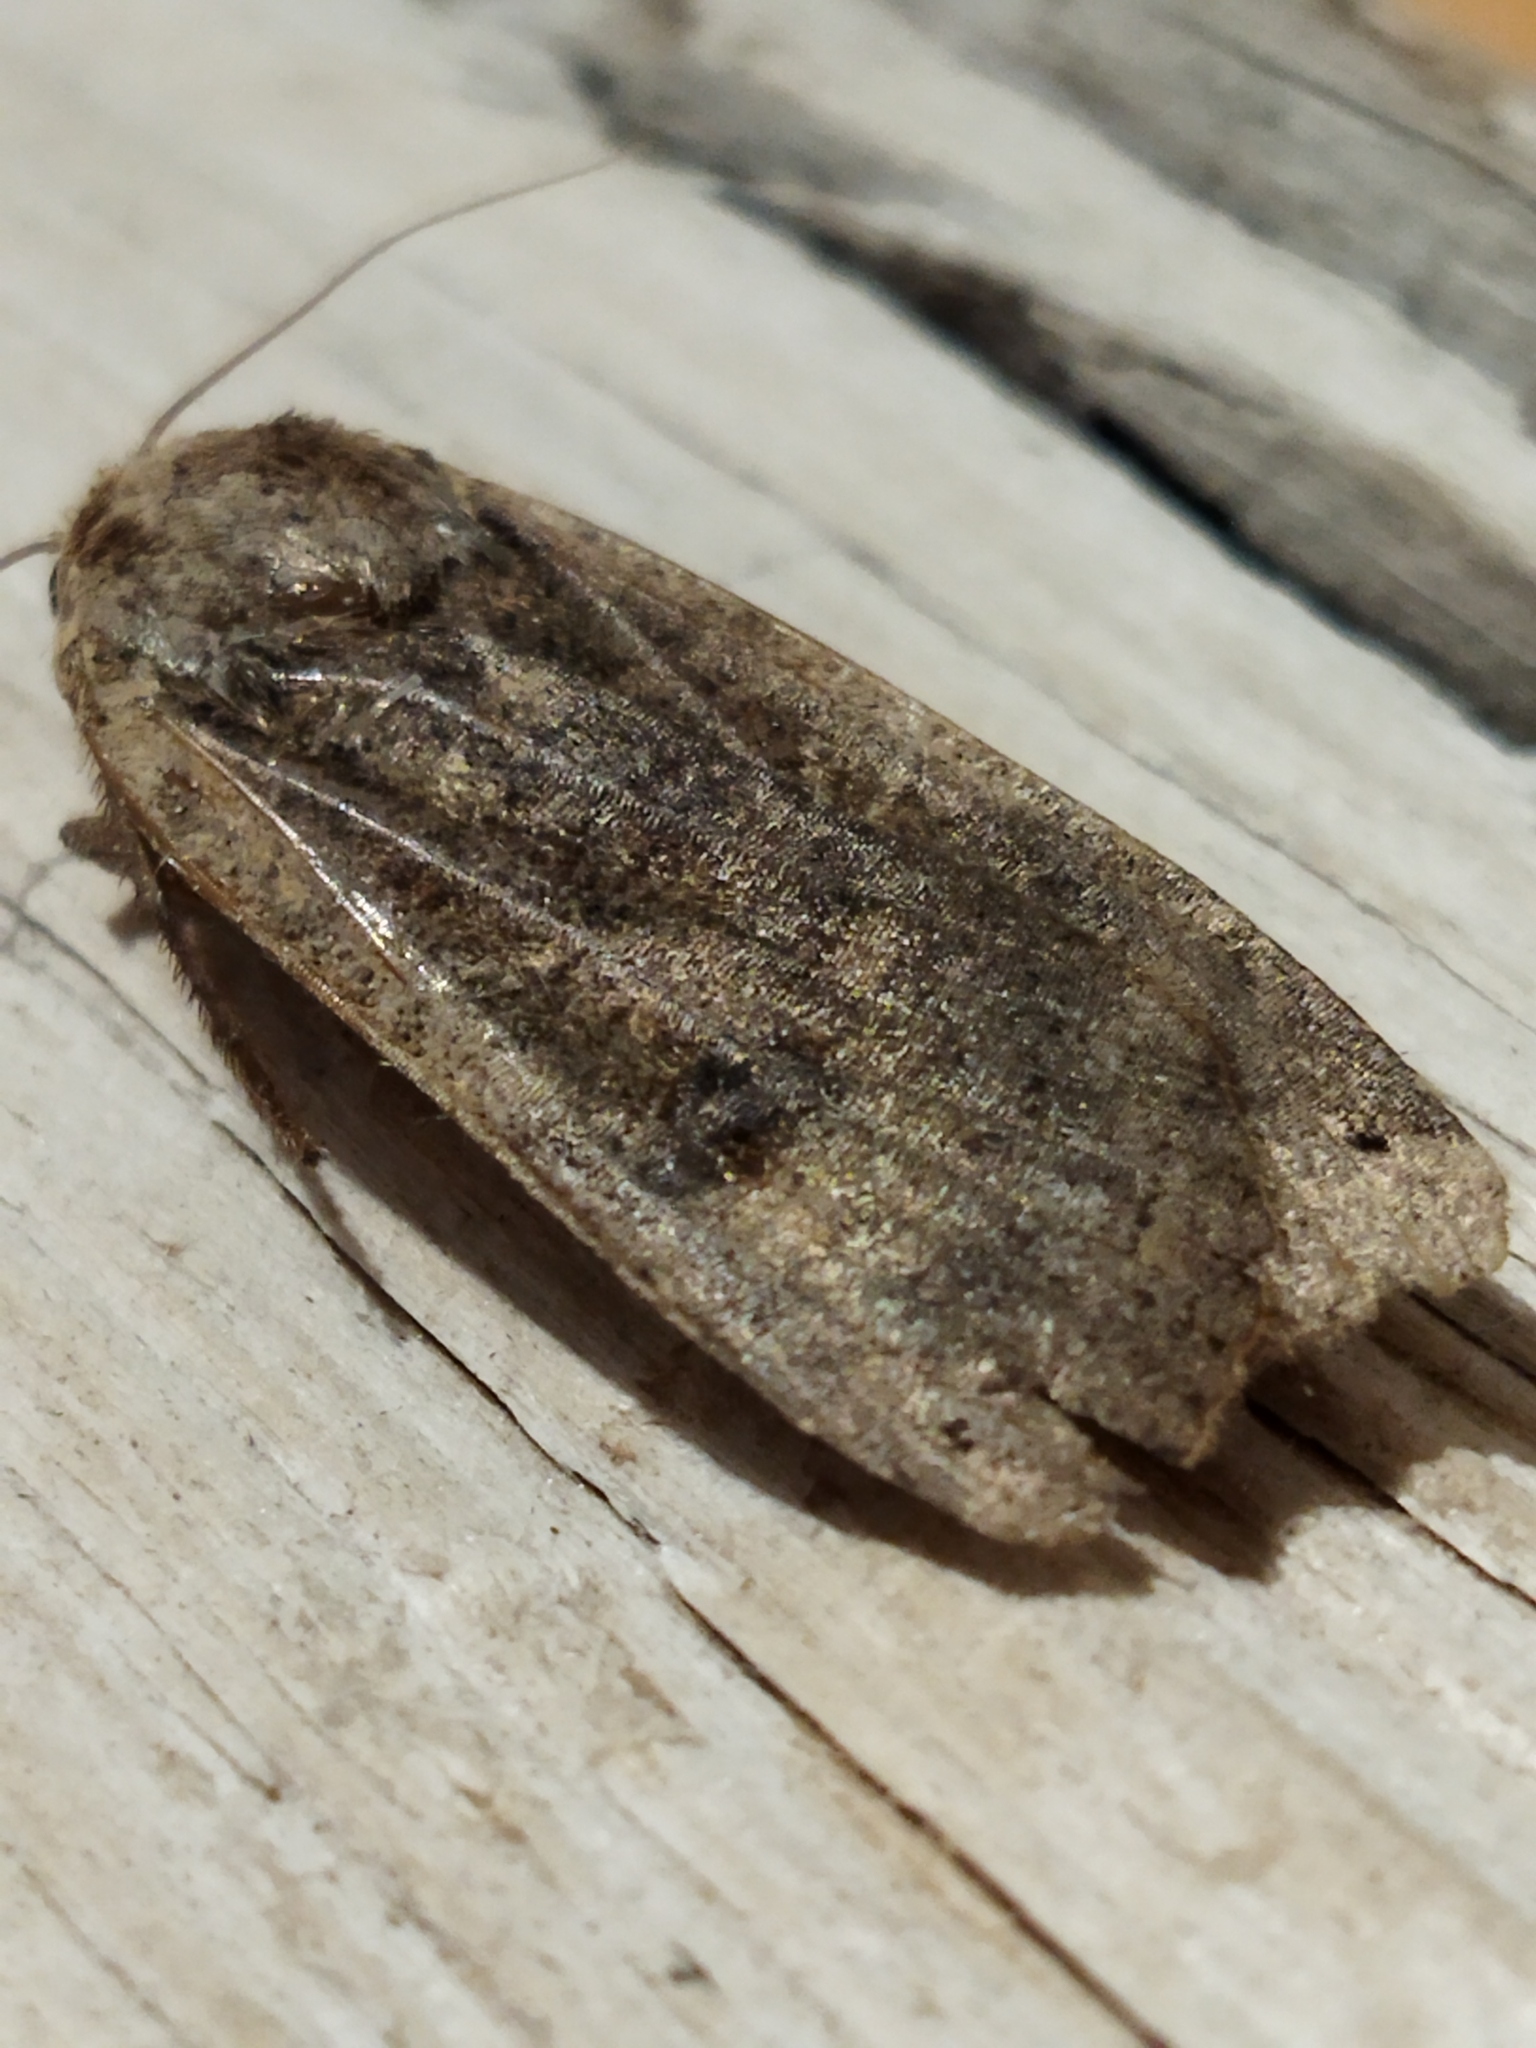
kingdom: Animalia
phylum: Arthropoda
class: Insecta
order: Lepidoptera
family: Noctuidae
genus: Noctua
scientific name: Noctua pronuba
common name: Large yellow underwing
